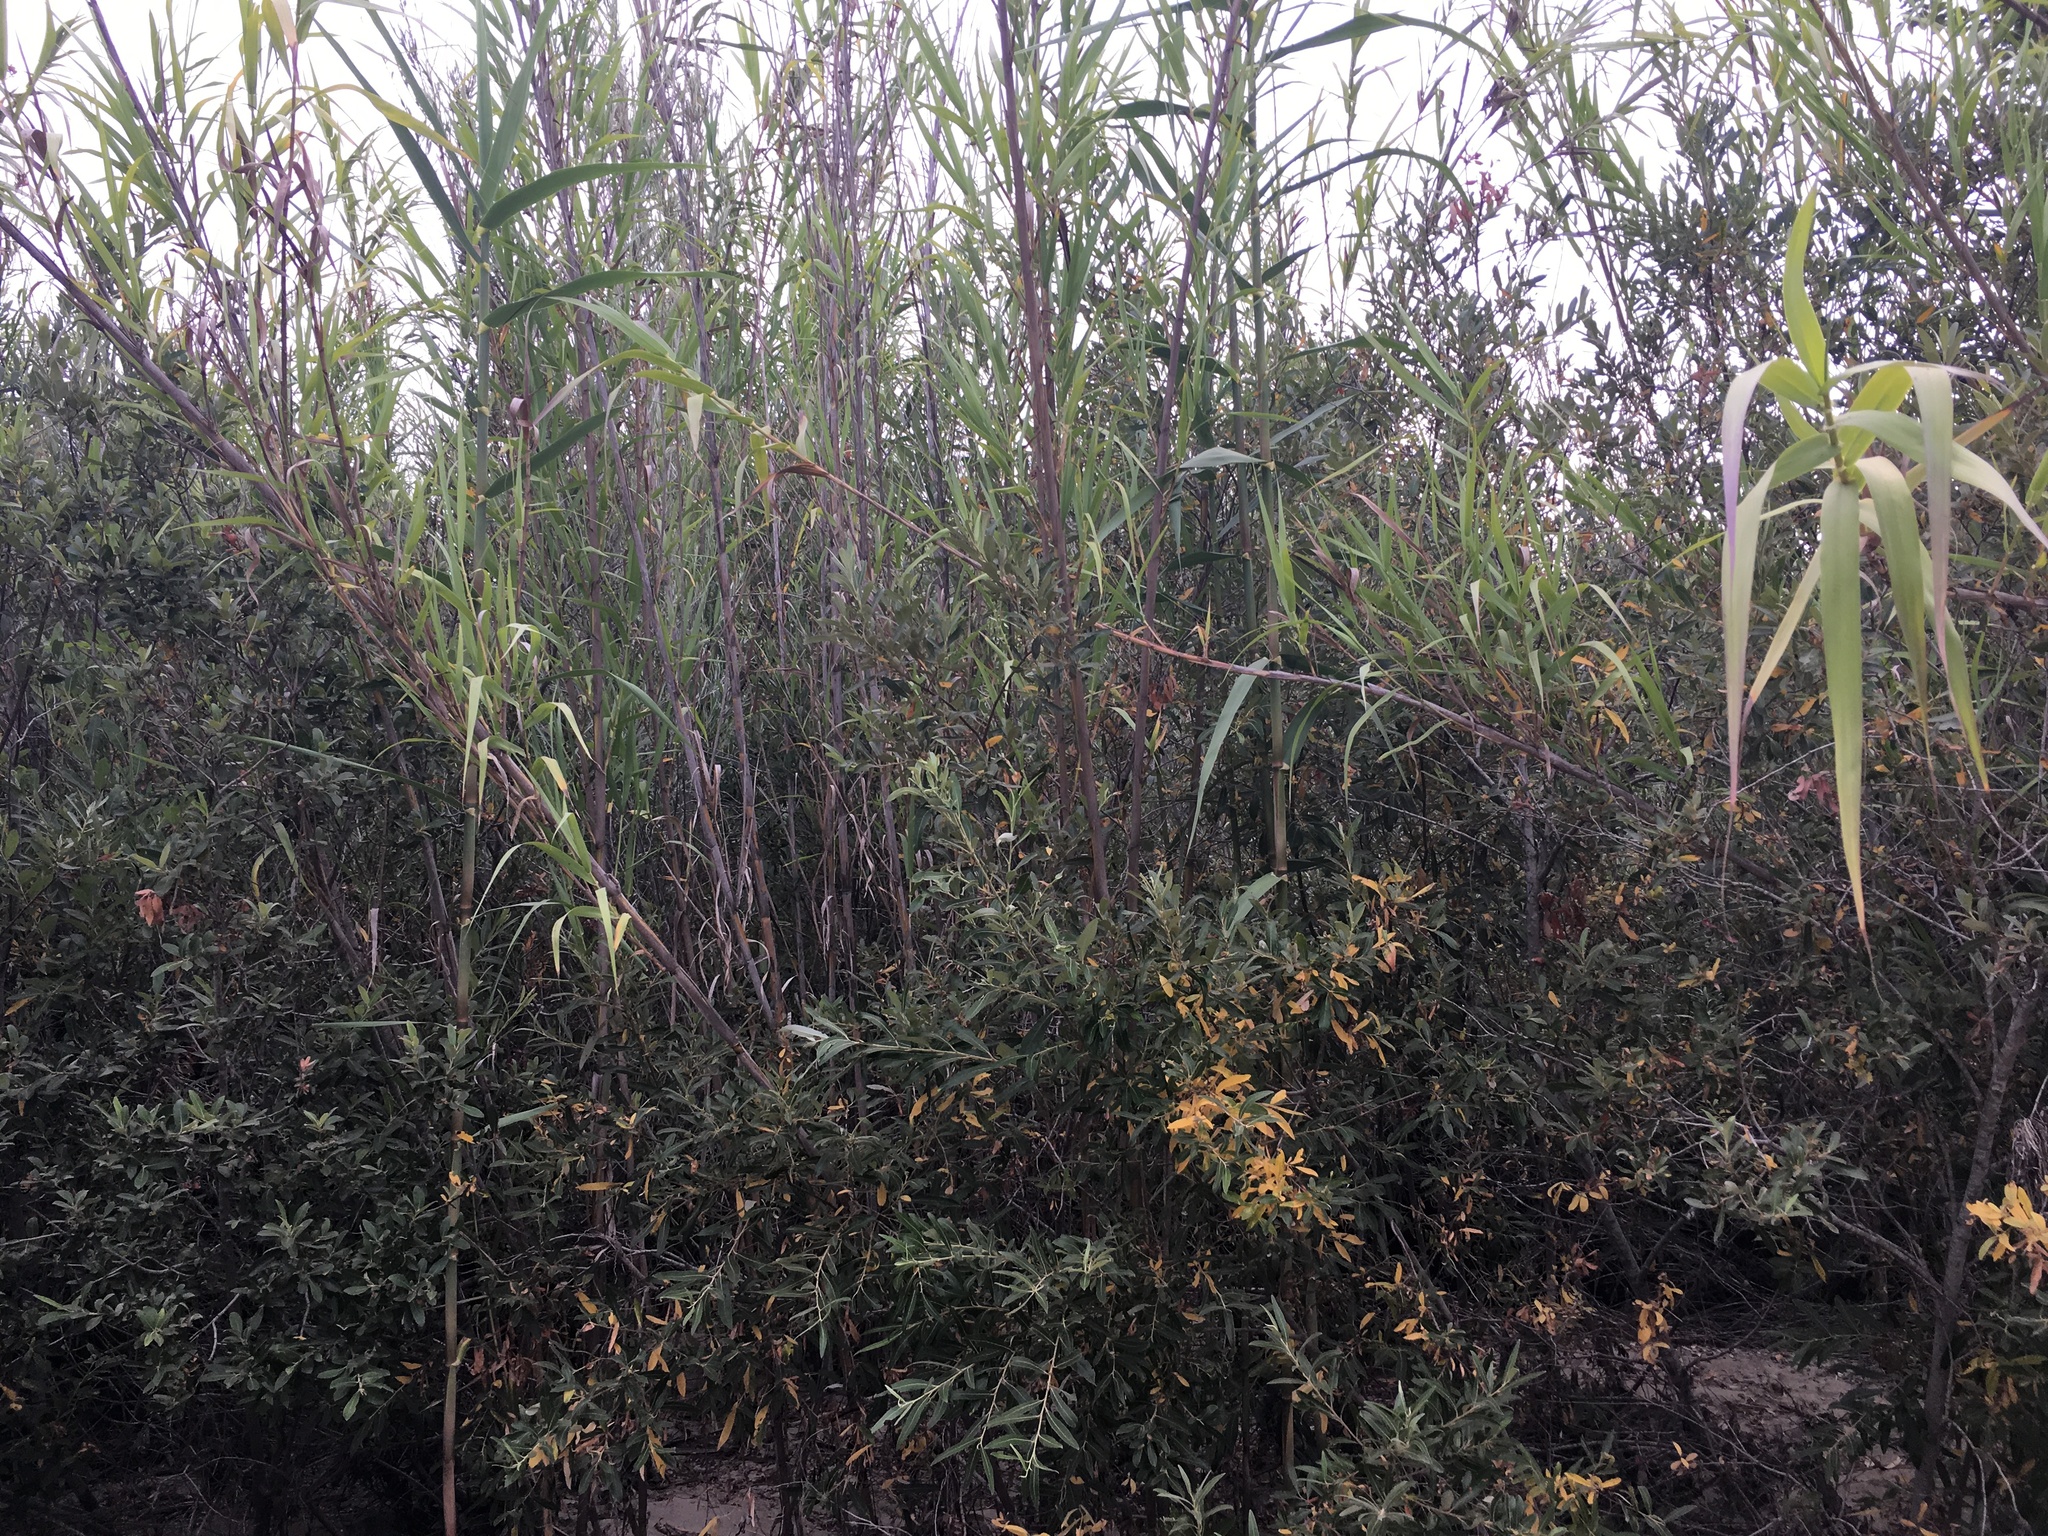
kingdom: Plantae
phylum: Tracheophyta
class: Liliopsida
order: Poales
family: Poaceae
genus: Arundo
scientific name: Arundo donax
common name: Giant reed
